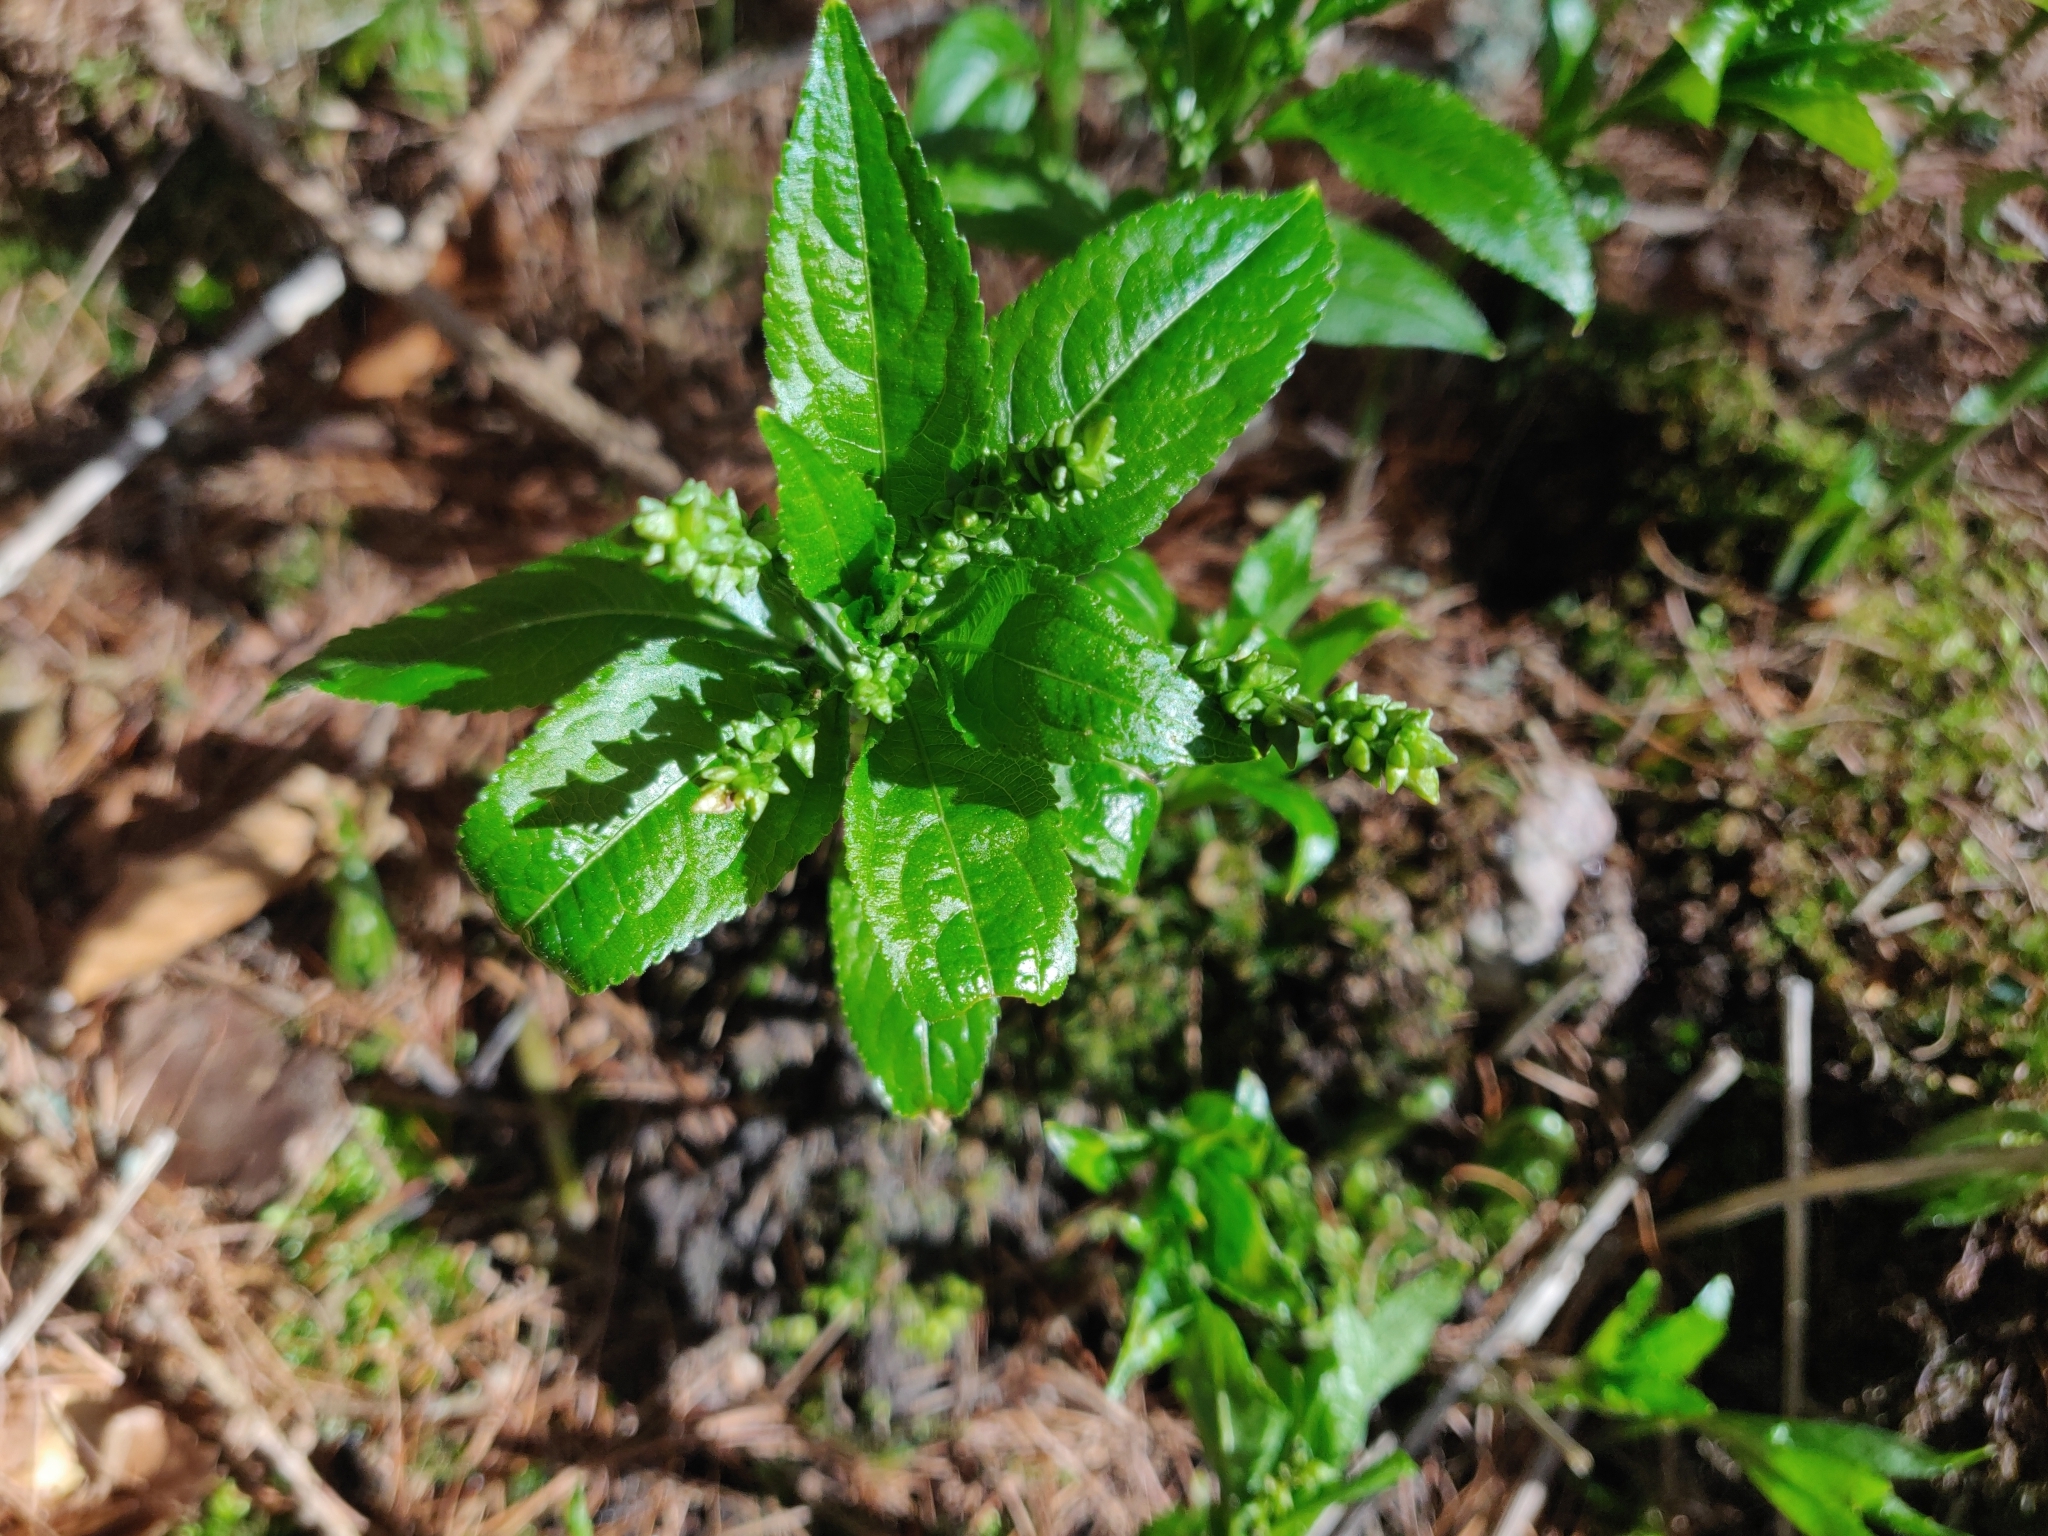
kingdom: Plantae
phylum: Tracheophyta
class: Magnoliopsida
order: Malpighiales
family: Euphorbiaceae
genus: Mercurialis
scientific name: Mercurialis perennis
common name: Dog mercury
